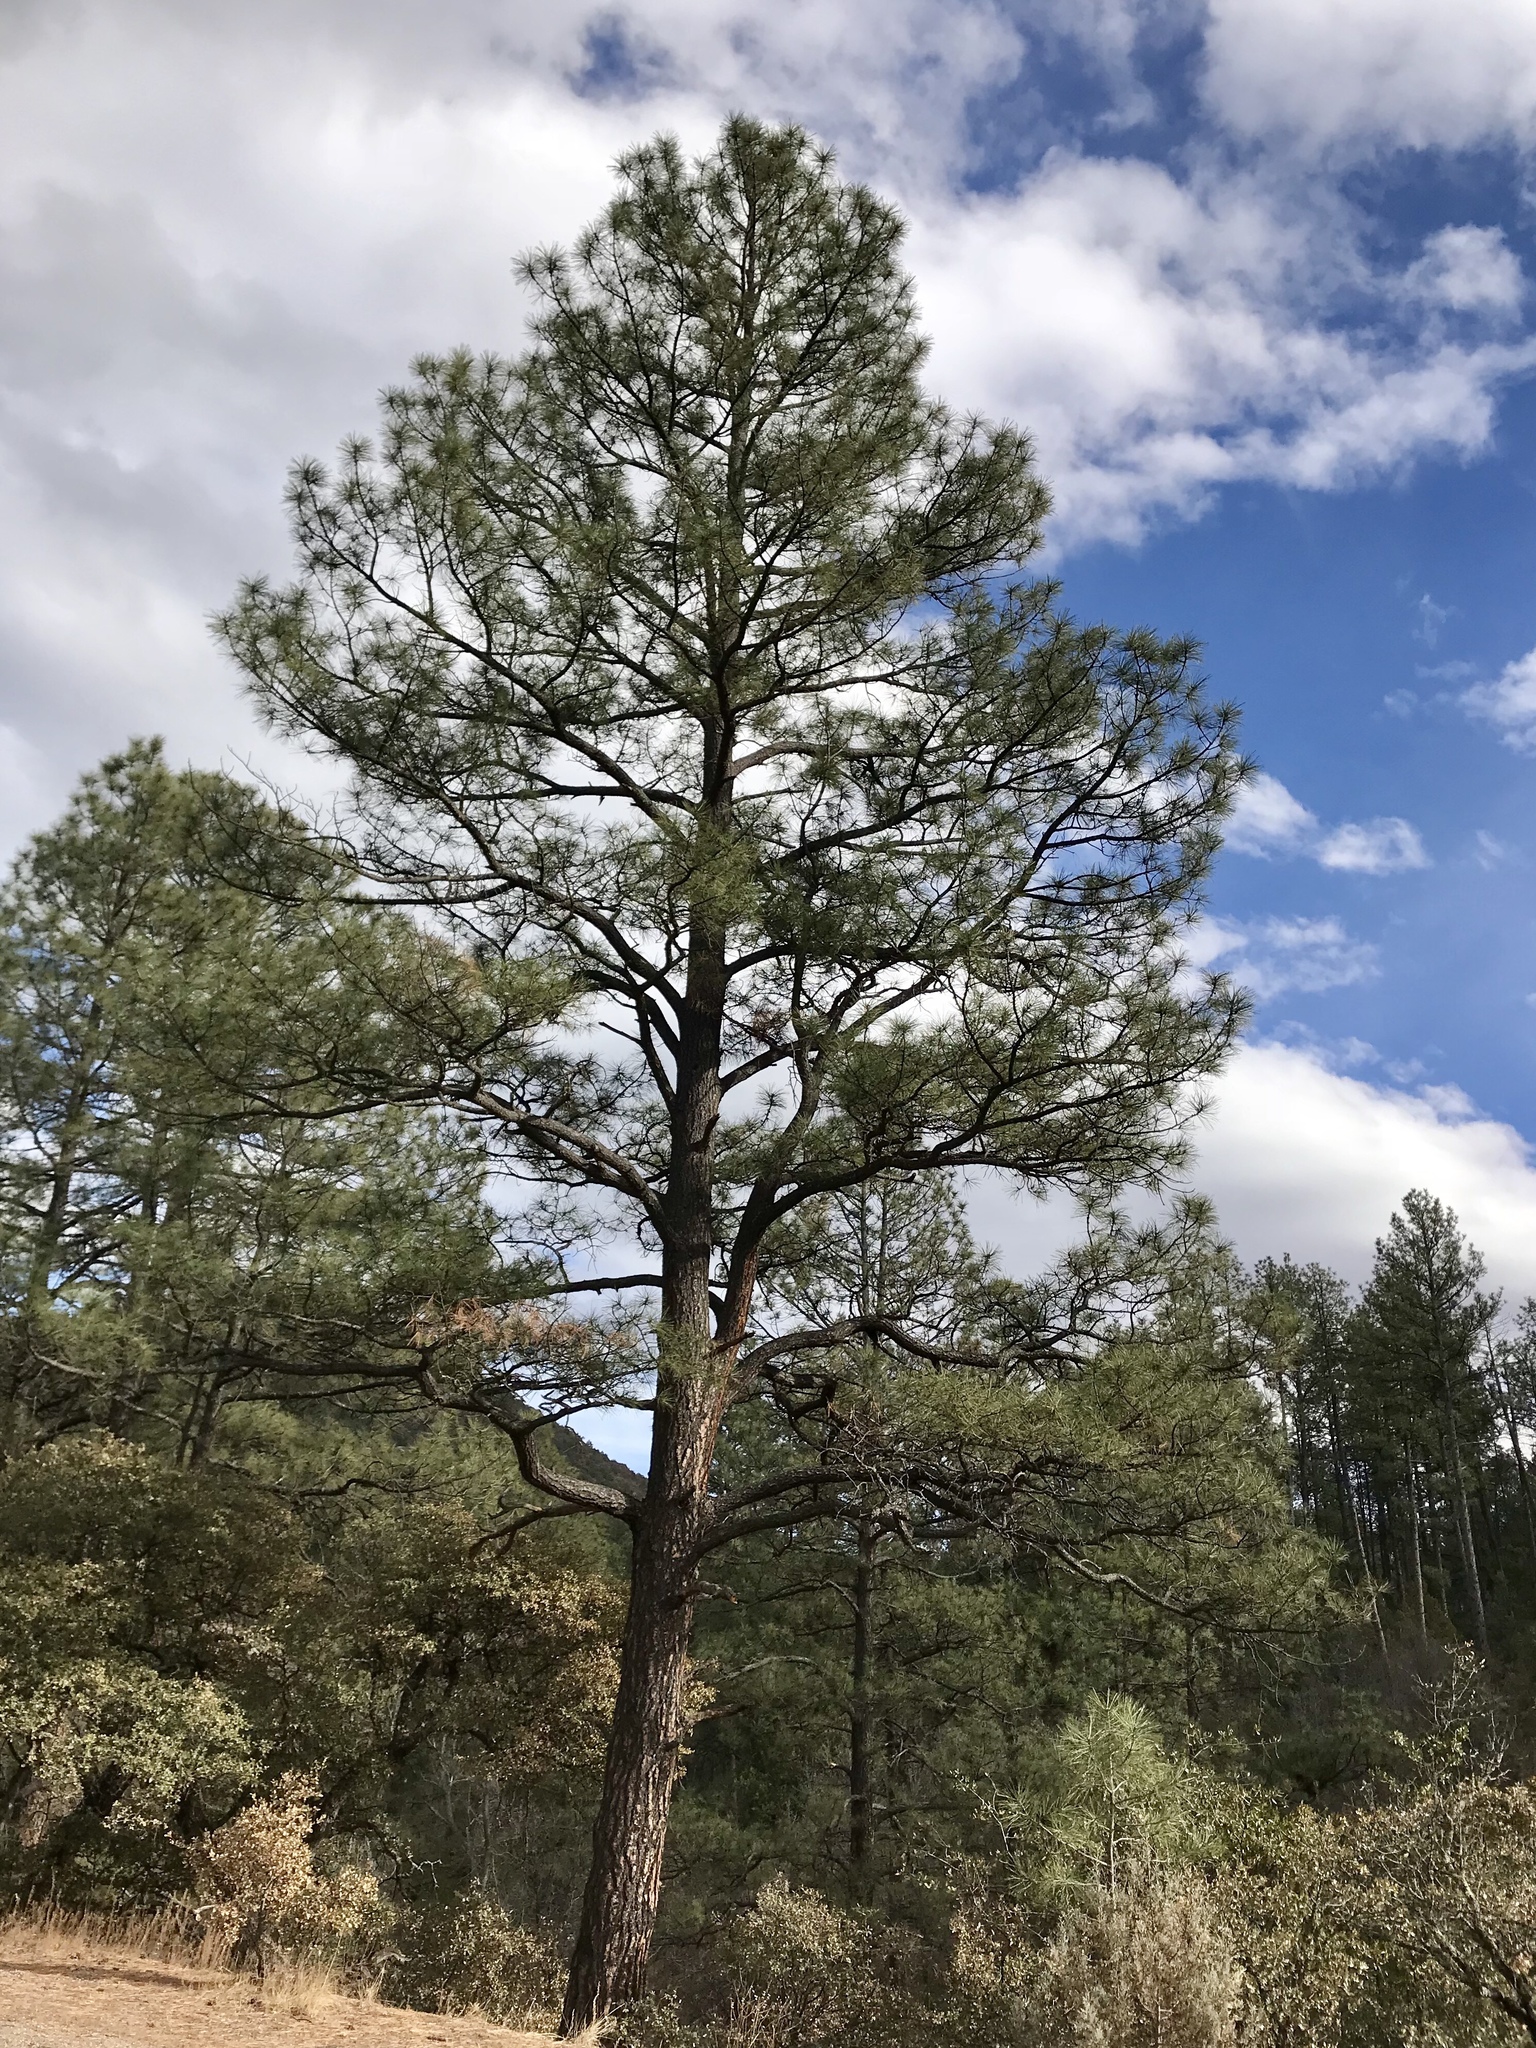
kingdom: Plantae
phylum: Tracheophyta
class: Pinopsida
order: Pinales
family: Pinaceae
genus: Pinus
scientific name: Pinus ponderosa
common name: Western yellow-pine
